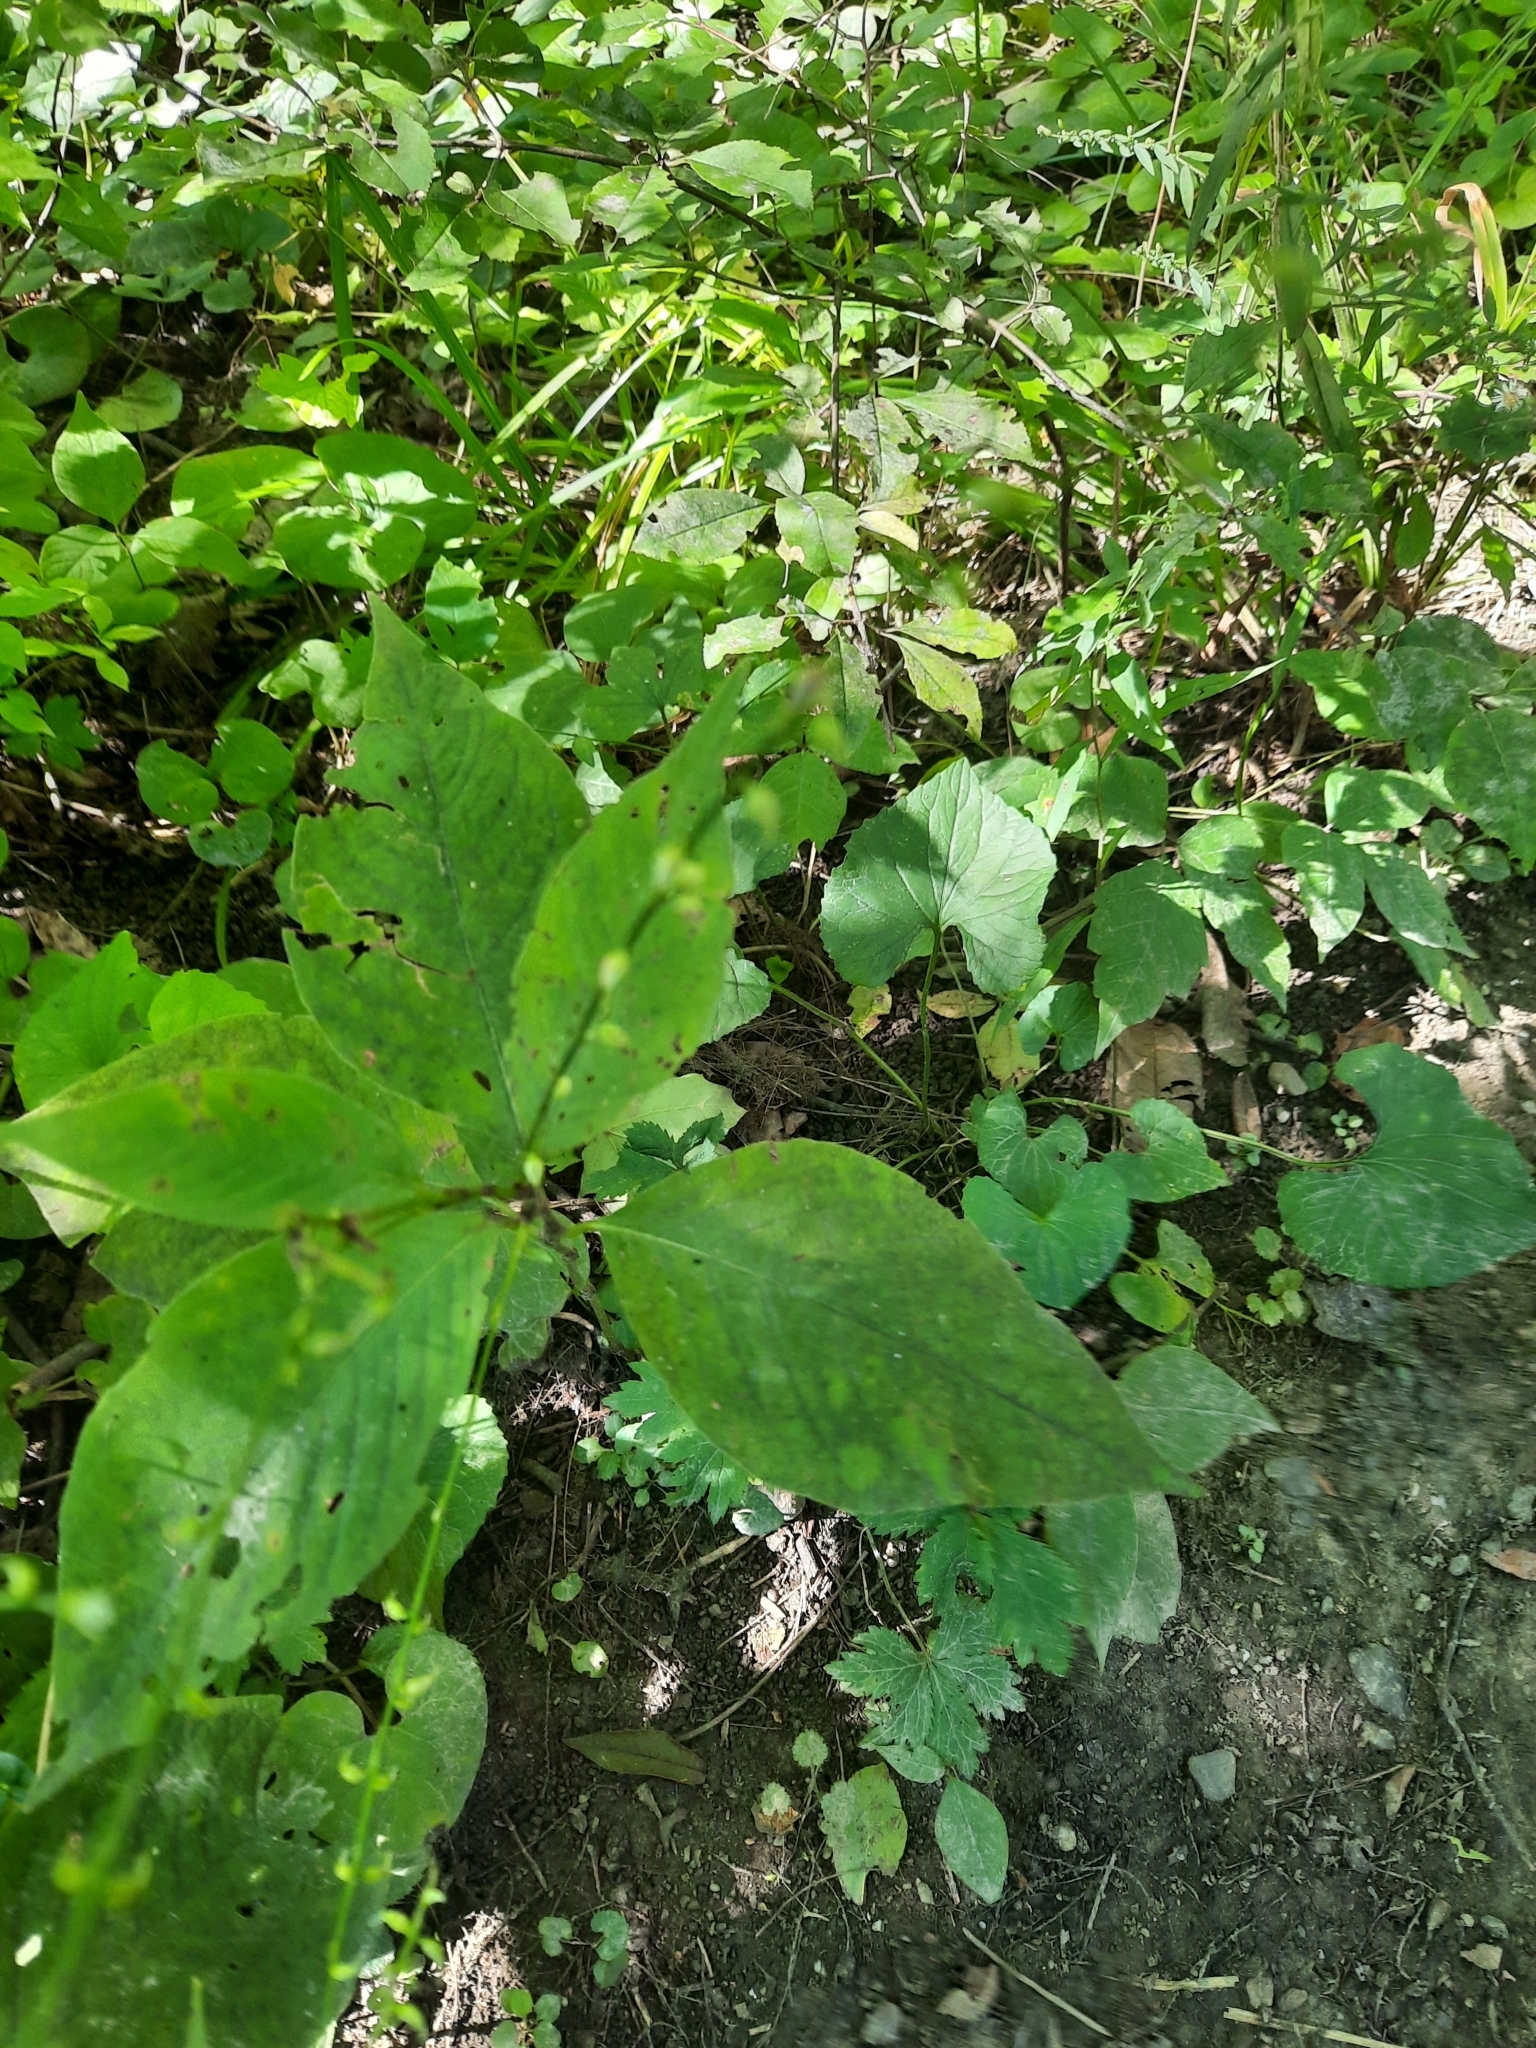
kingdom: Plantae
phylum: Tracheophyta
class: Magnoliopsida
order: Caryophyllales
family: Polygonaceae
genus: Persicaria
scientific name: Persicaria virginiana
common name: Jumpseed
